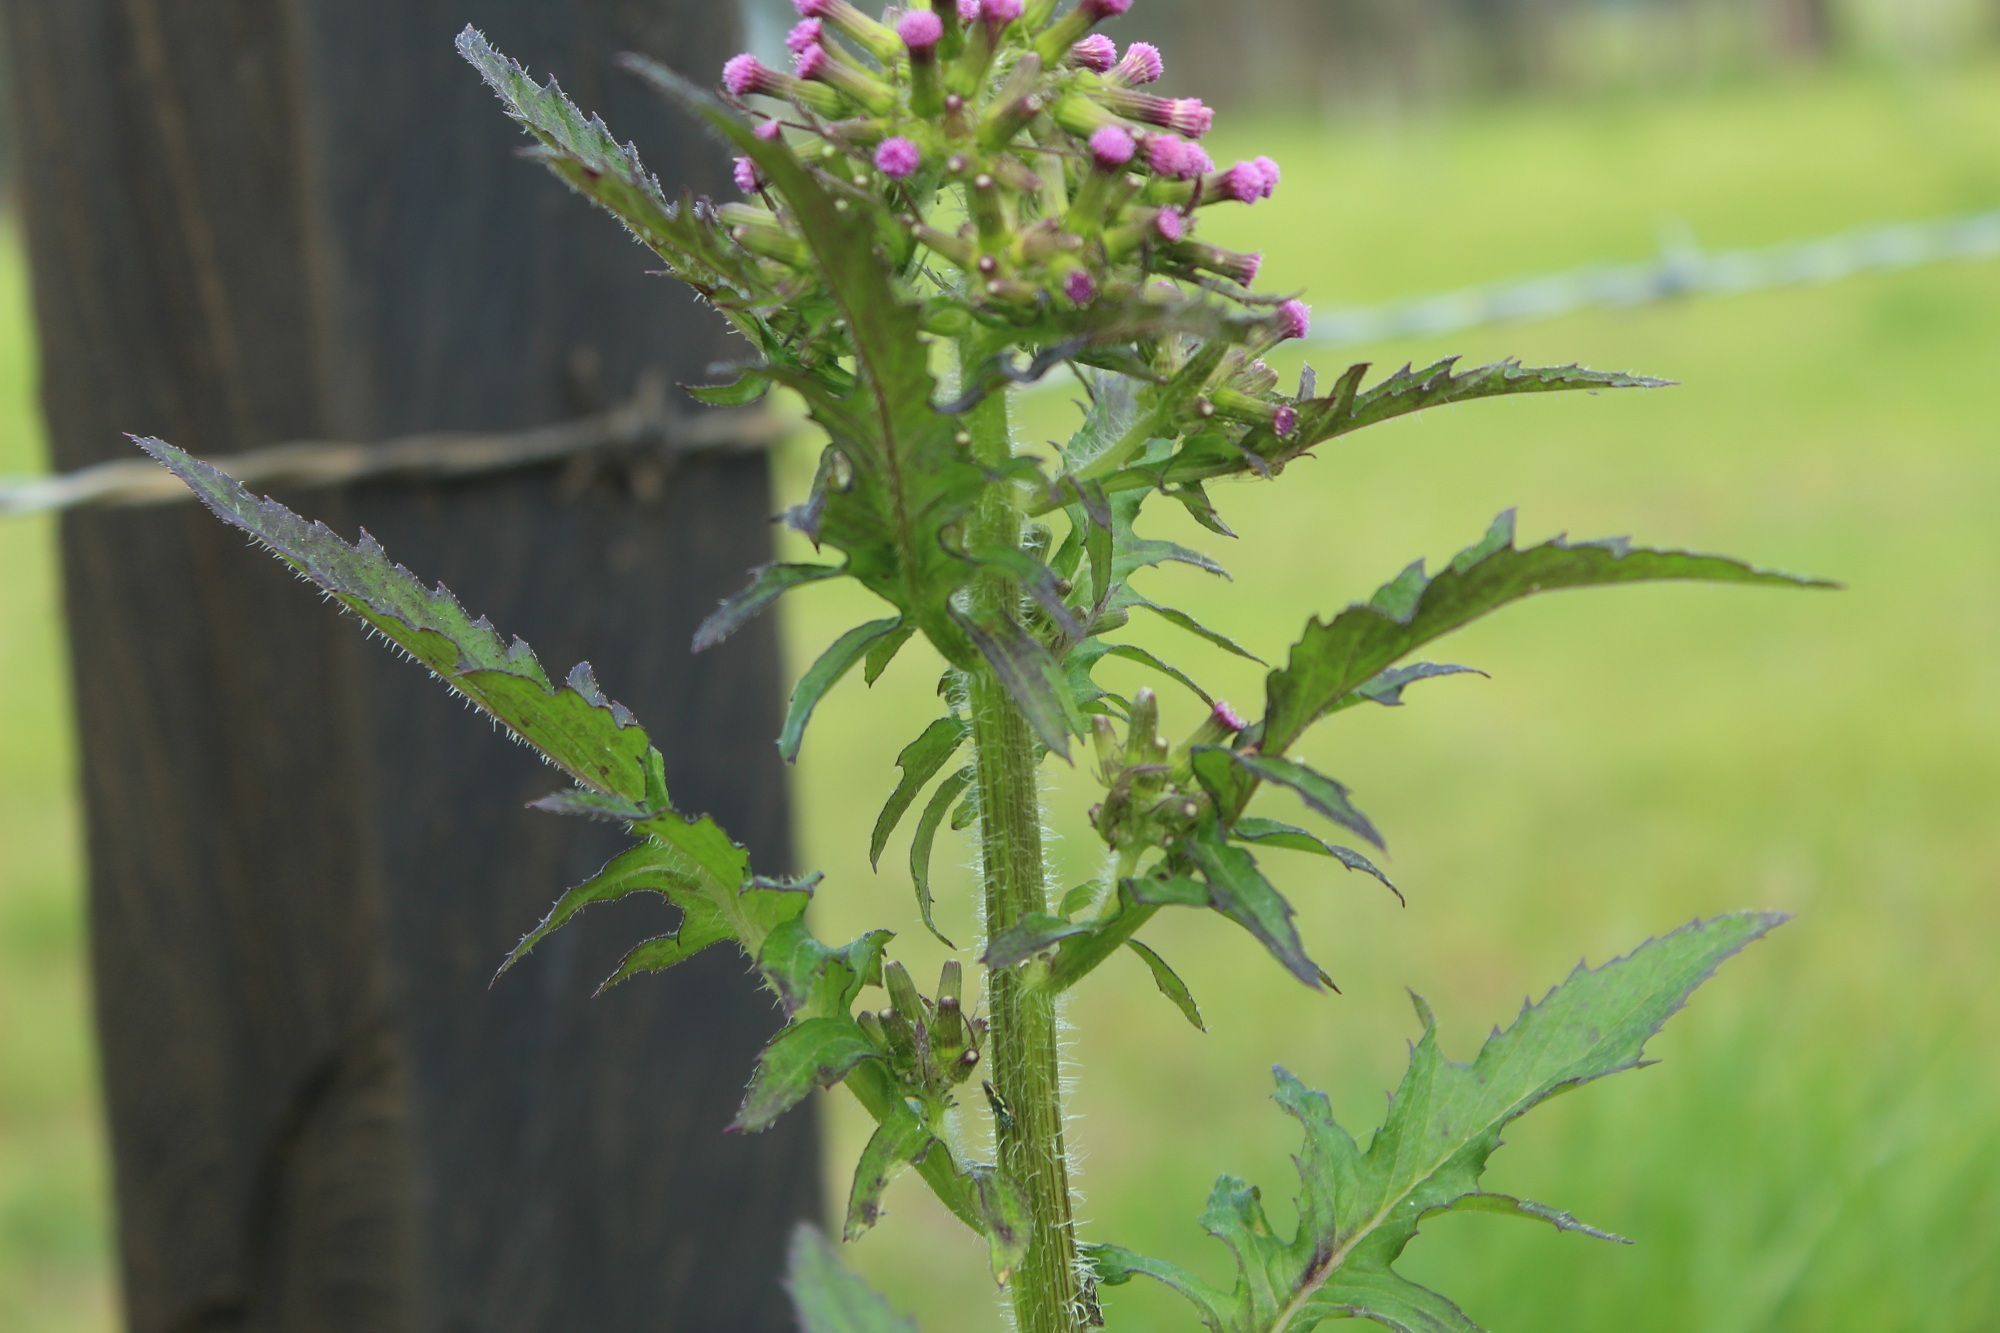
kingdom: Plantae
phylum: Tracheophyta
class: Magnoliopsida
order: Asterales
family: Asteraceae
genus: Erechtites
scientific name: Erechtites valerianifolius
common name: Tropical burnweed
